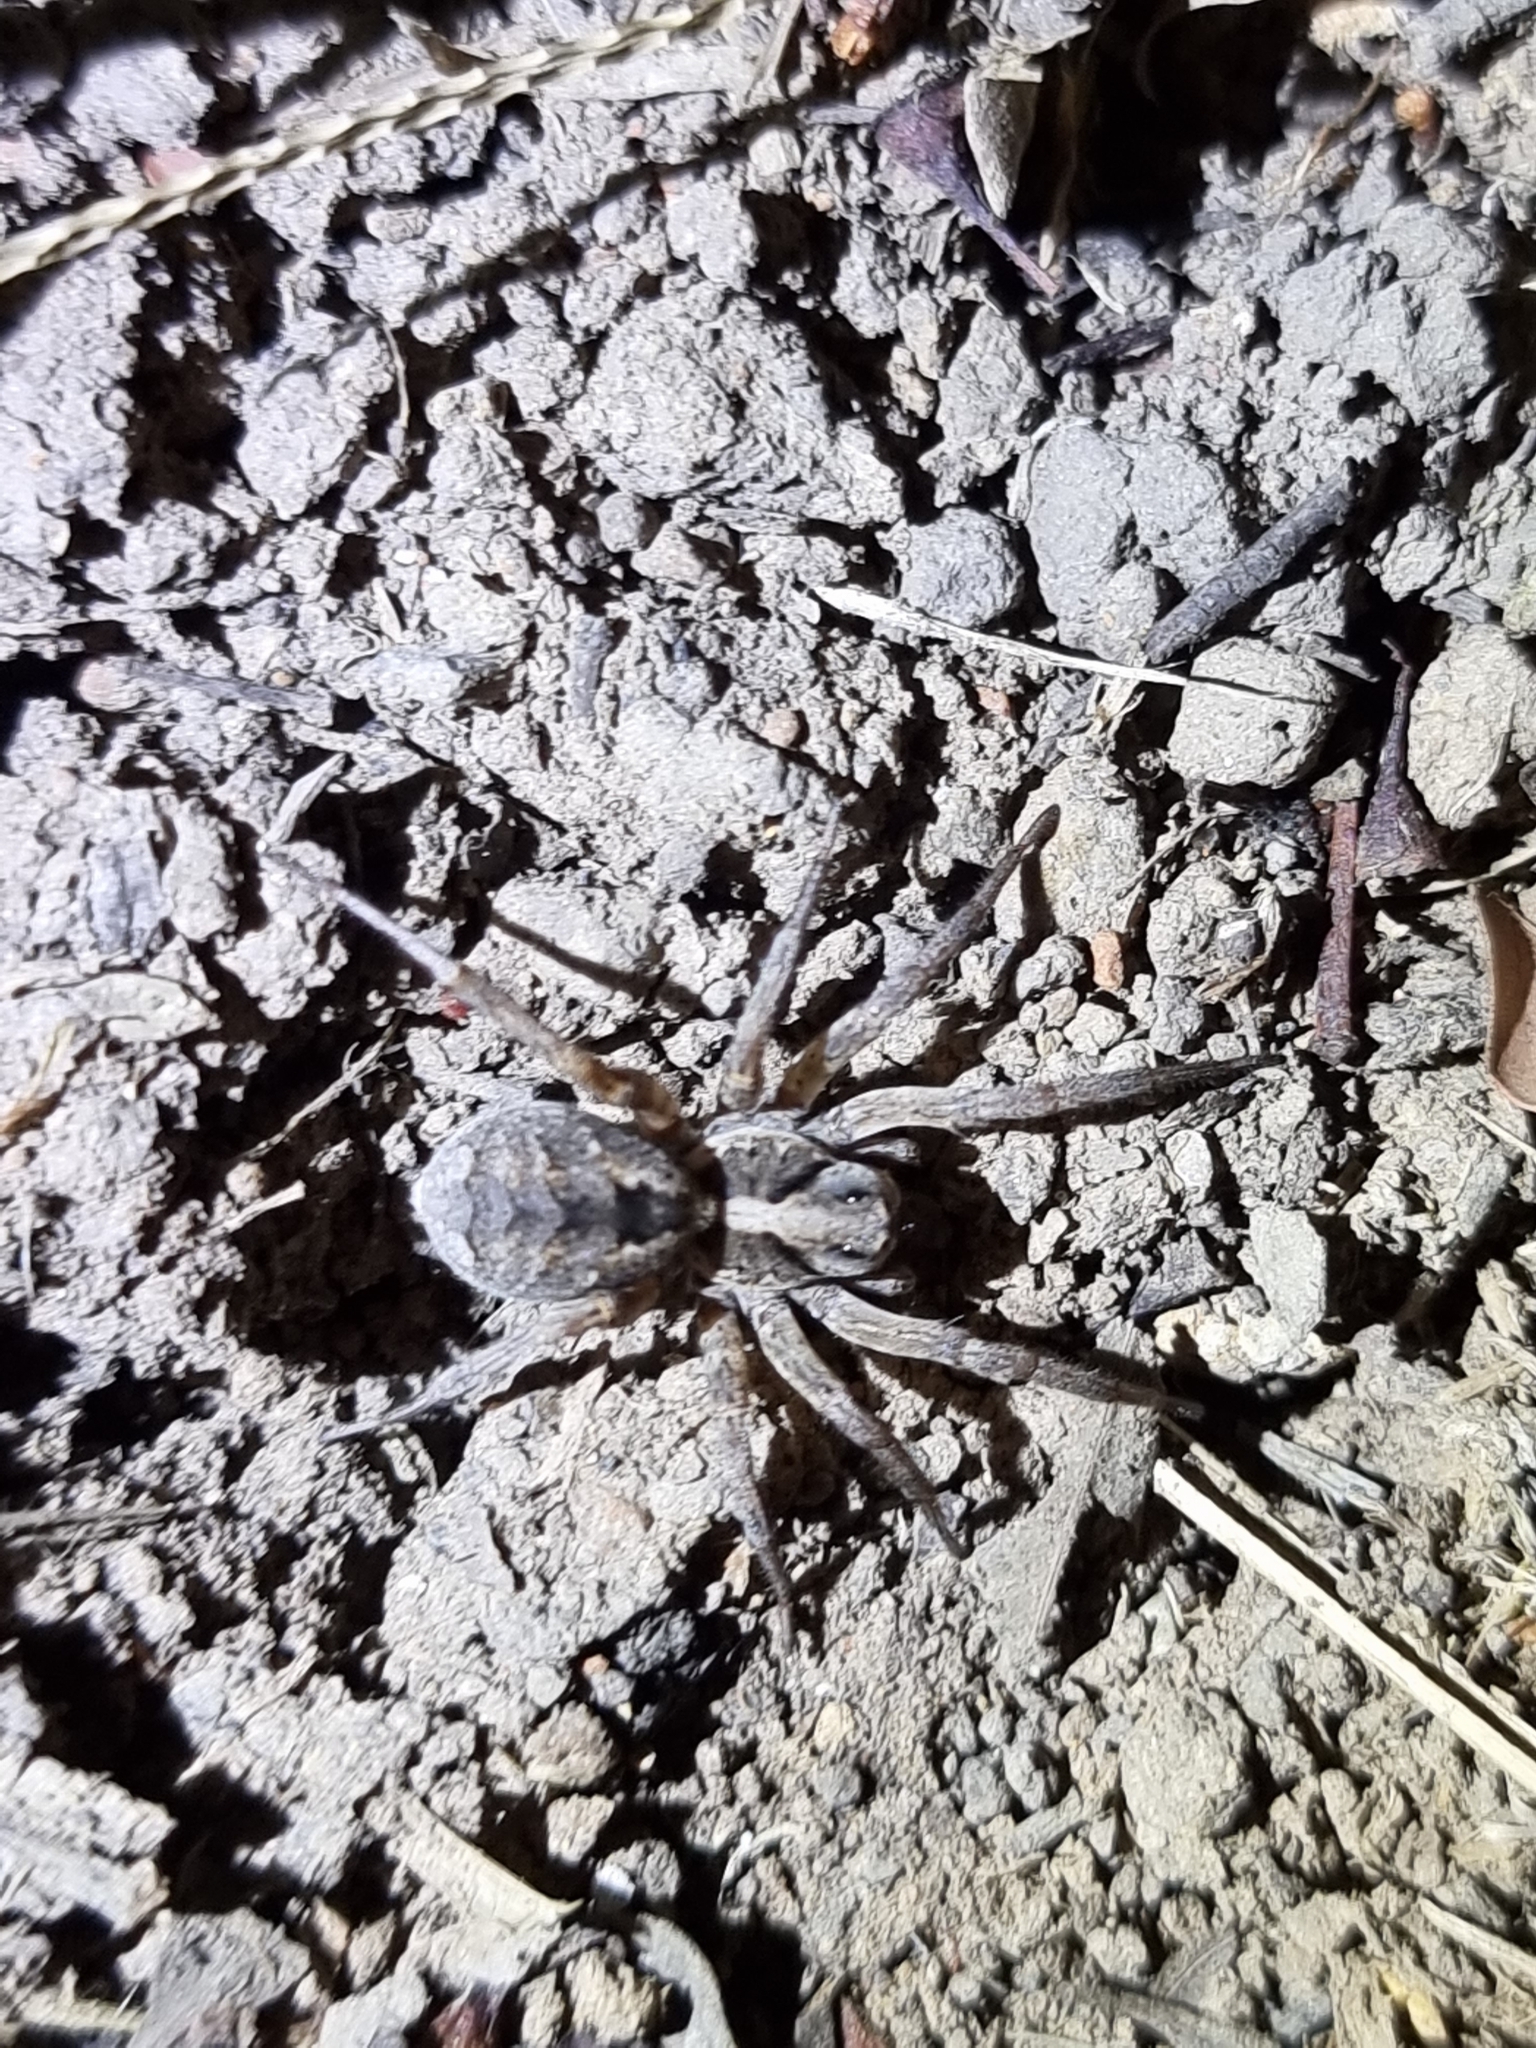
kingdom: Animalia
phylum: Arthropoda
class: Arachnida
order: Araneae
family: Lycosidae
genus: Venator
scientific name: Venator spenceri
